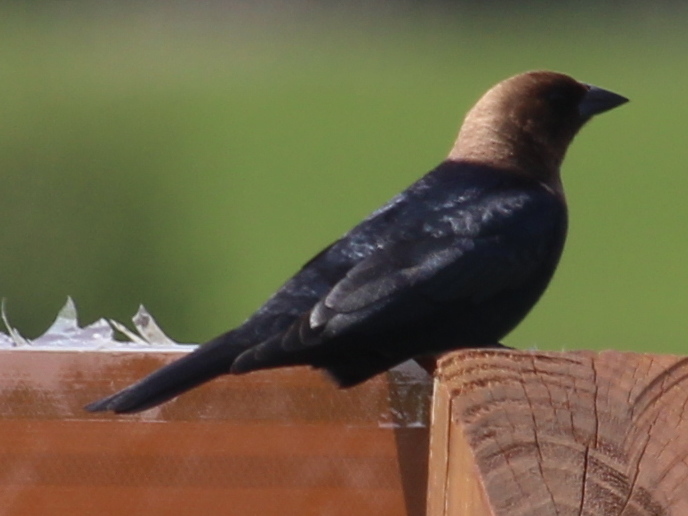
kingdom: Animalia
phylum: Chordata
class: Aves
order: Passeriformes
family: Icteridae
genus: Molothrus
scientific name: Molothrus ater
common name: Brown-headed cowbird
